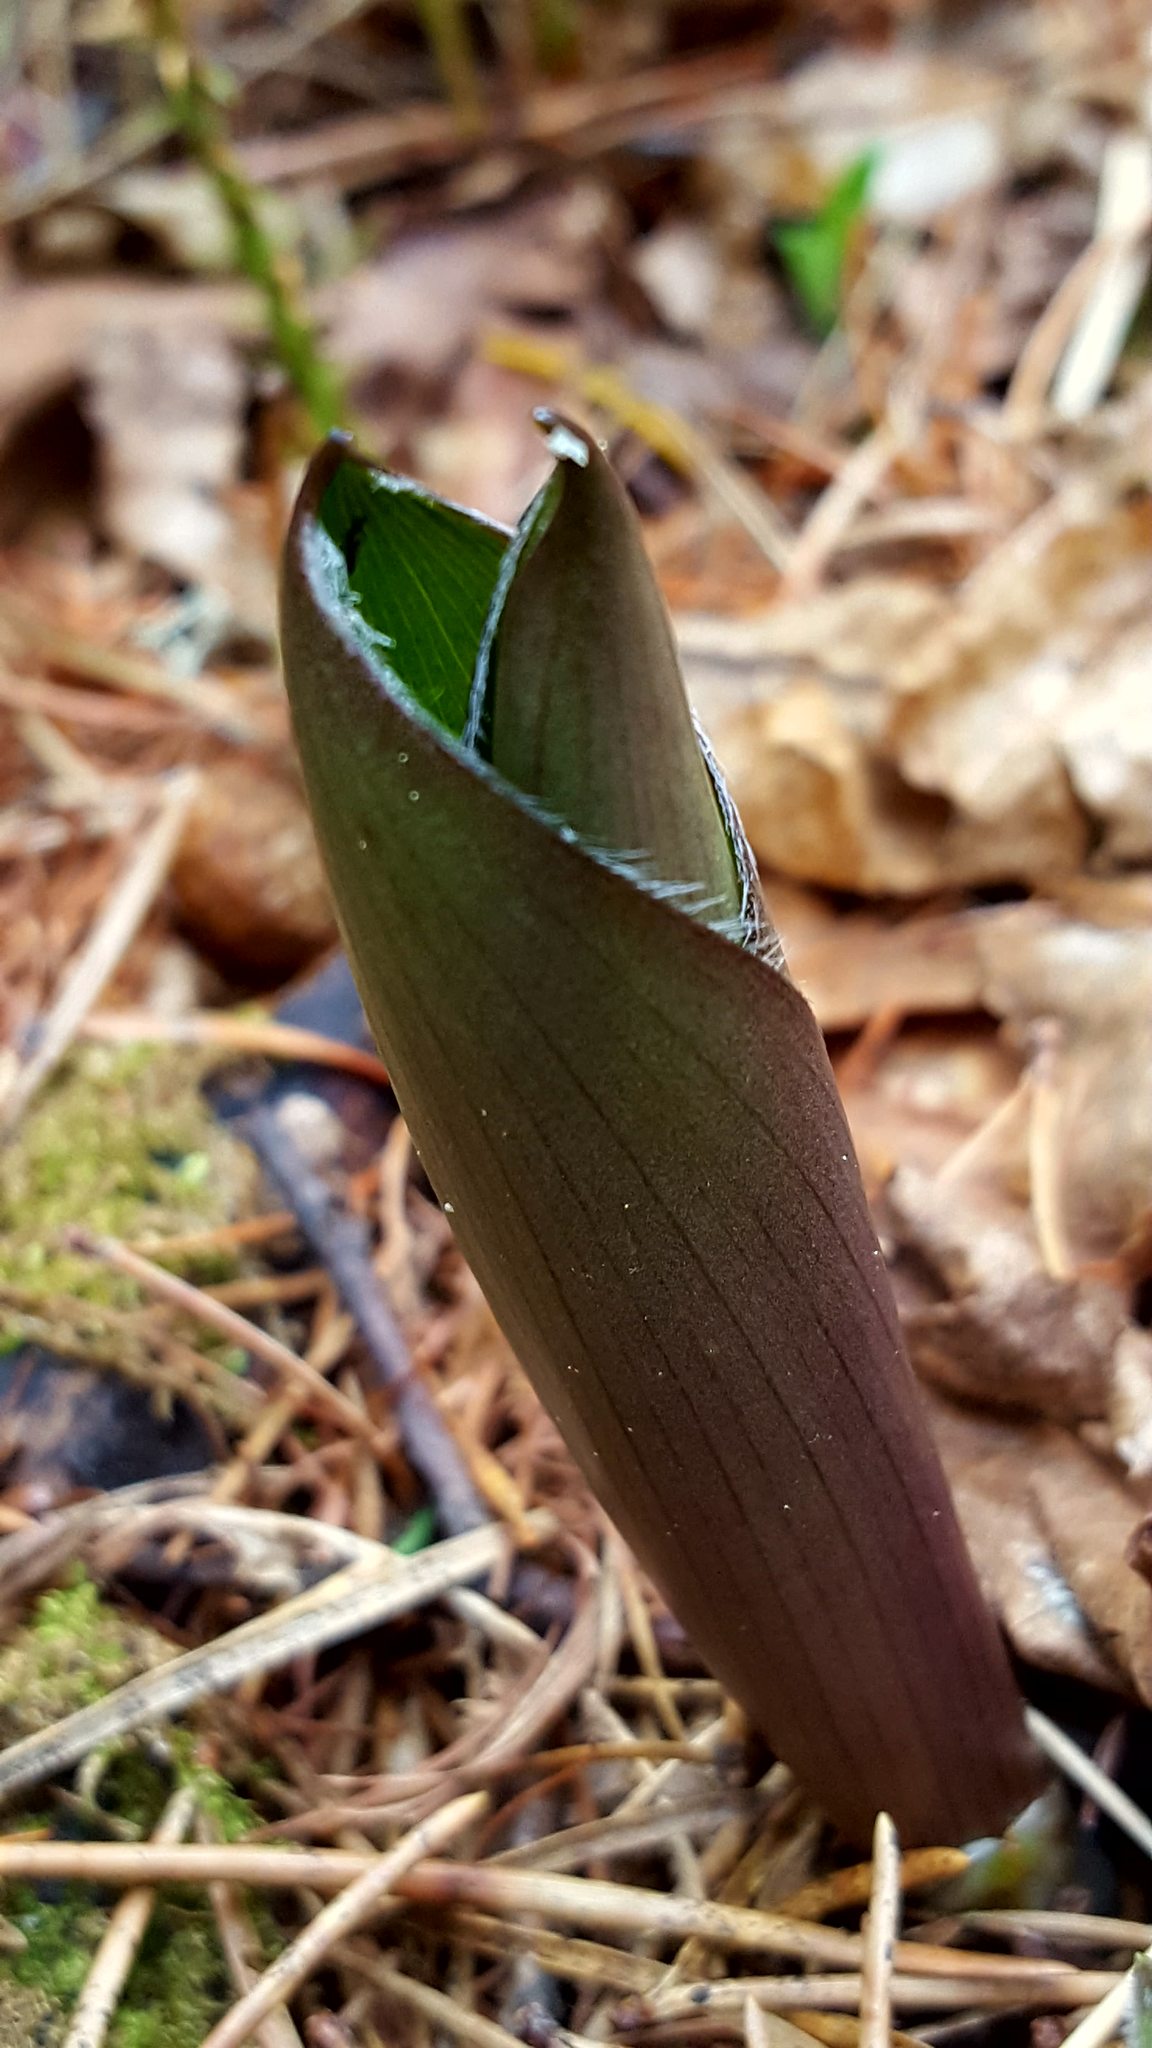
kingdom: Plantae
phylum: Tracheophyta
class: Liliopsida
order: Liliales
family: Liliaceae
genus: Clintonia
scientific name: Clintonia borealis
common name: Yellow clintonia
